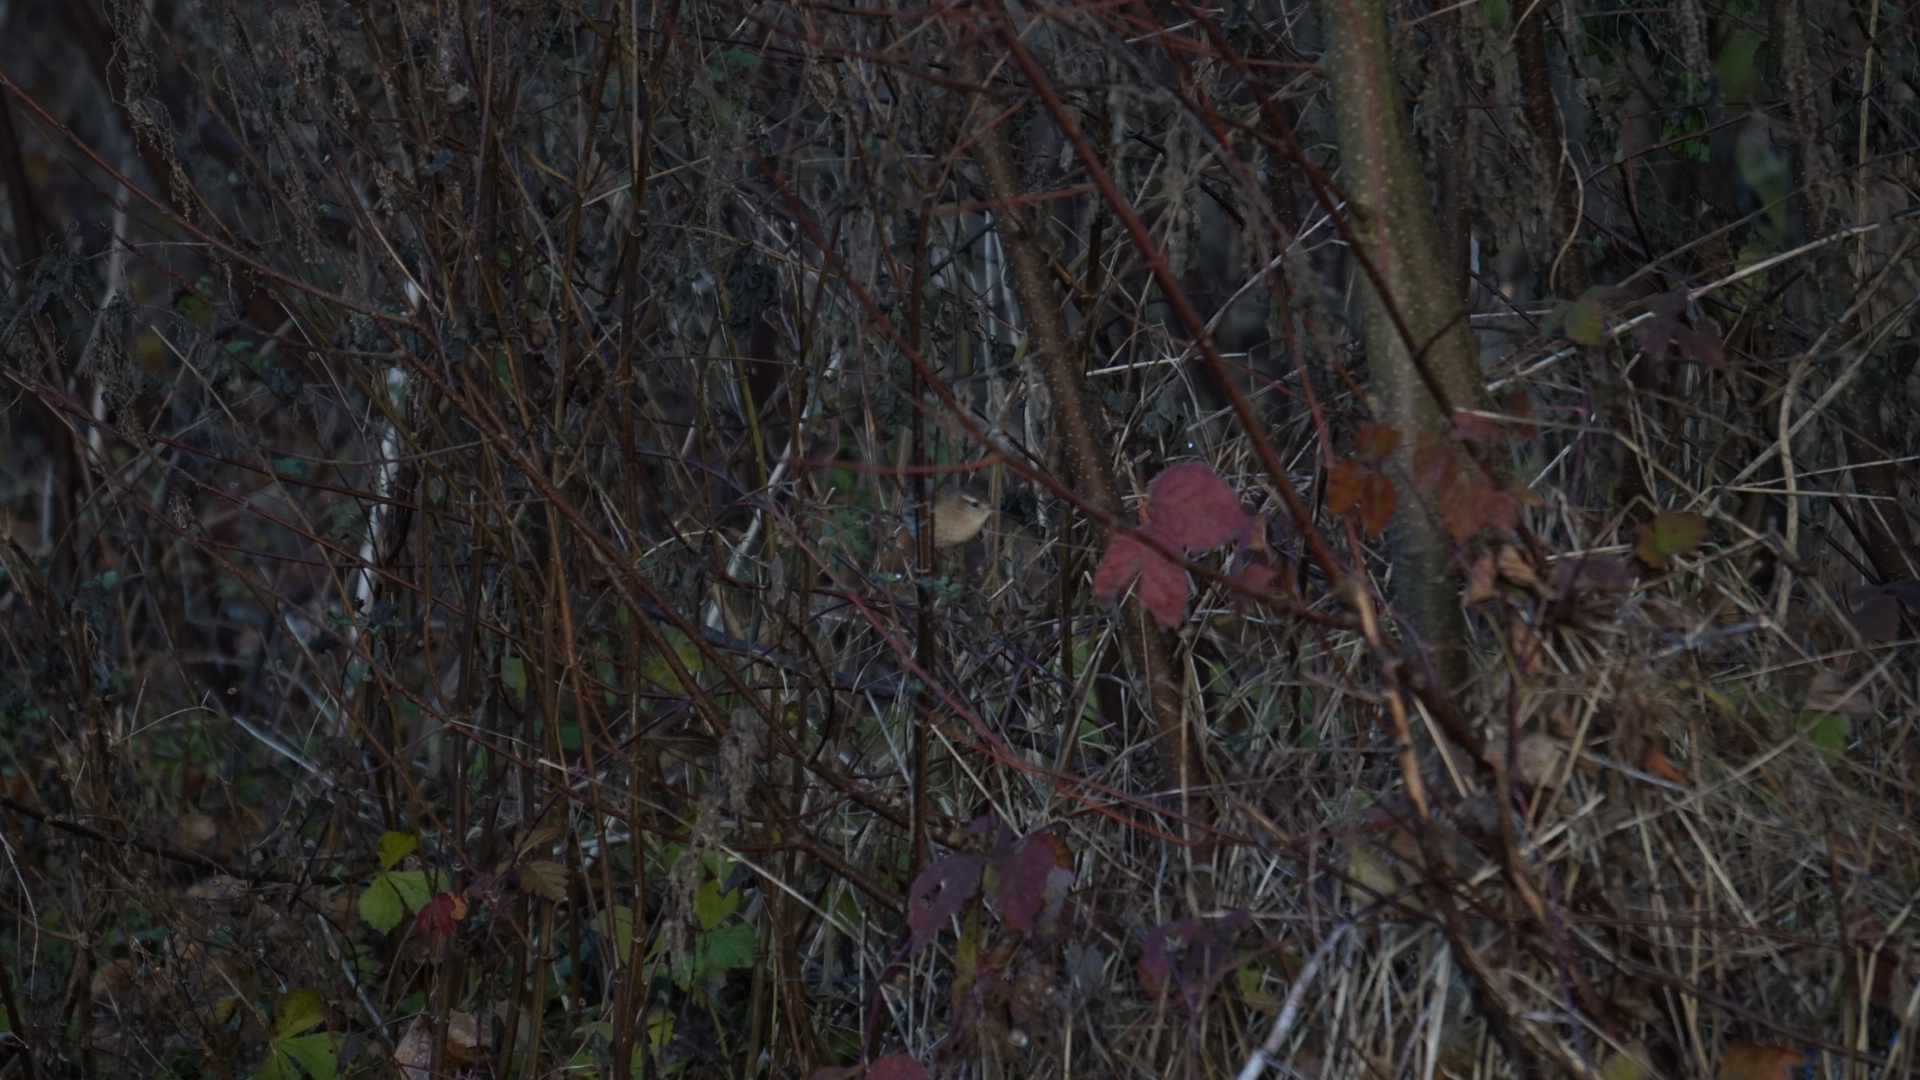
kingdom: Animalia
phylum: Chordata
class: Aves
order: Passeriformes
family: Troglodytidae
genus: Troglodytes
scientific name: Troglodytes troglodytes
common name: Eurasian wren
